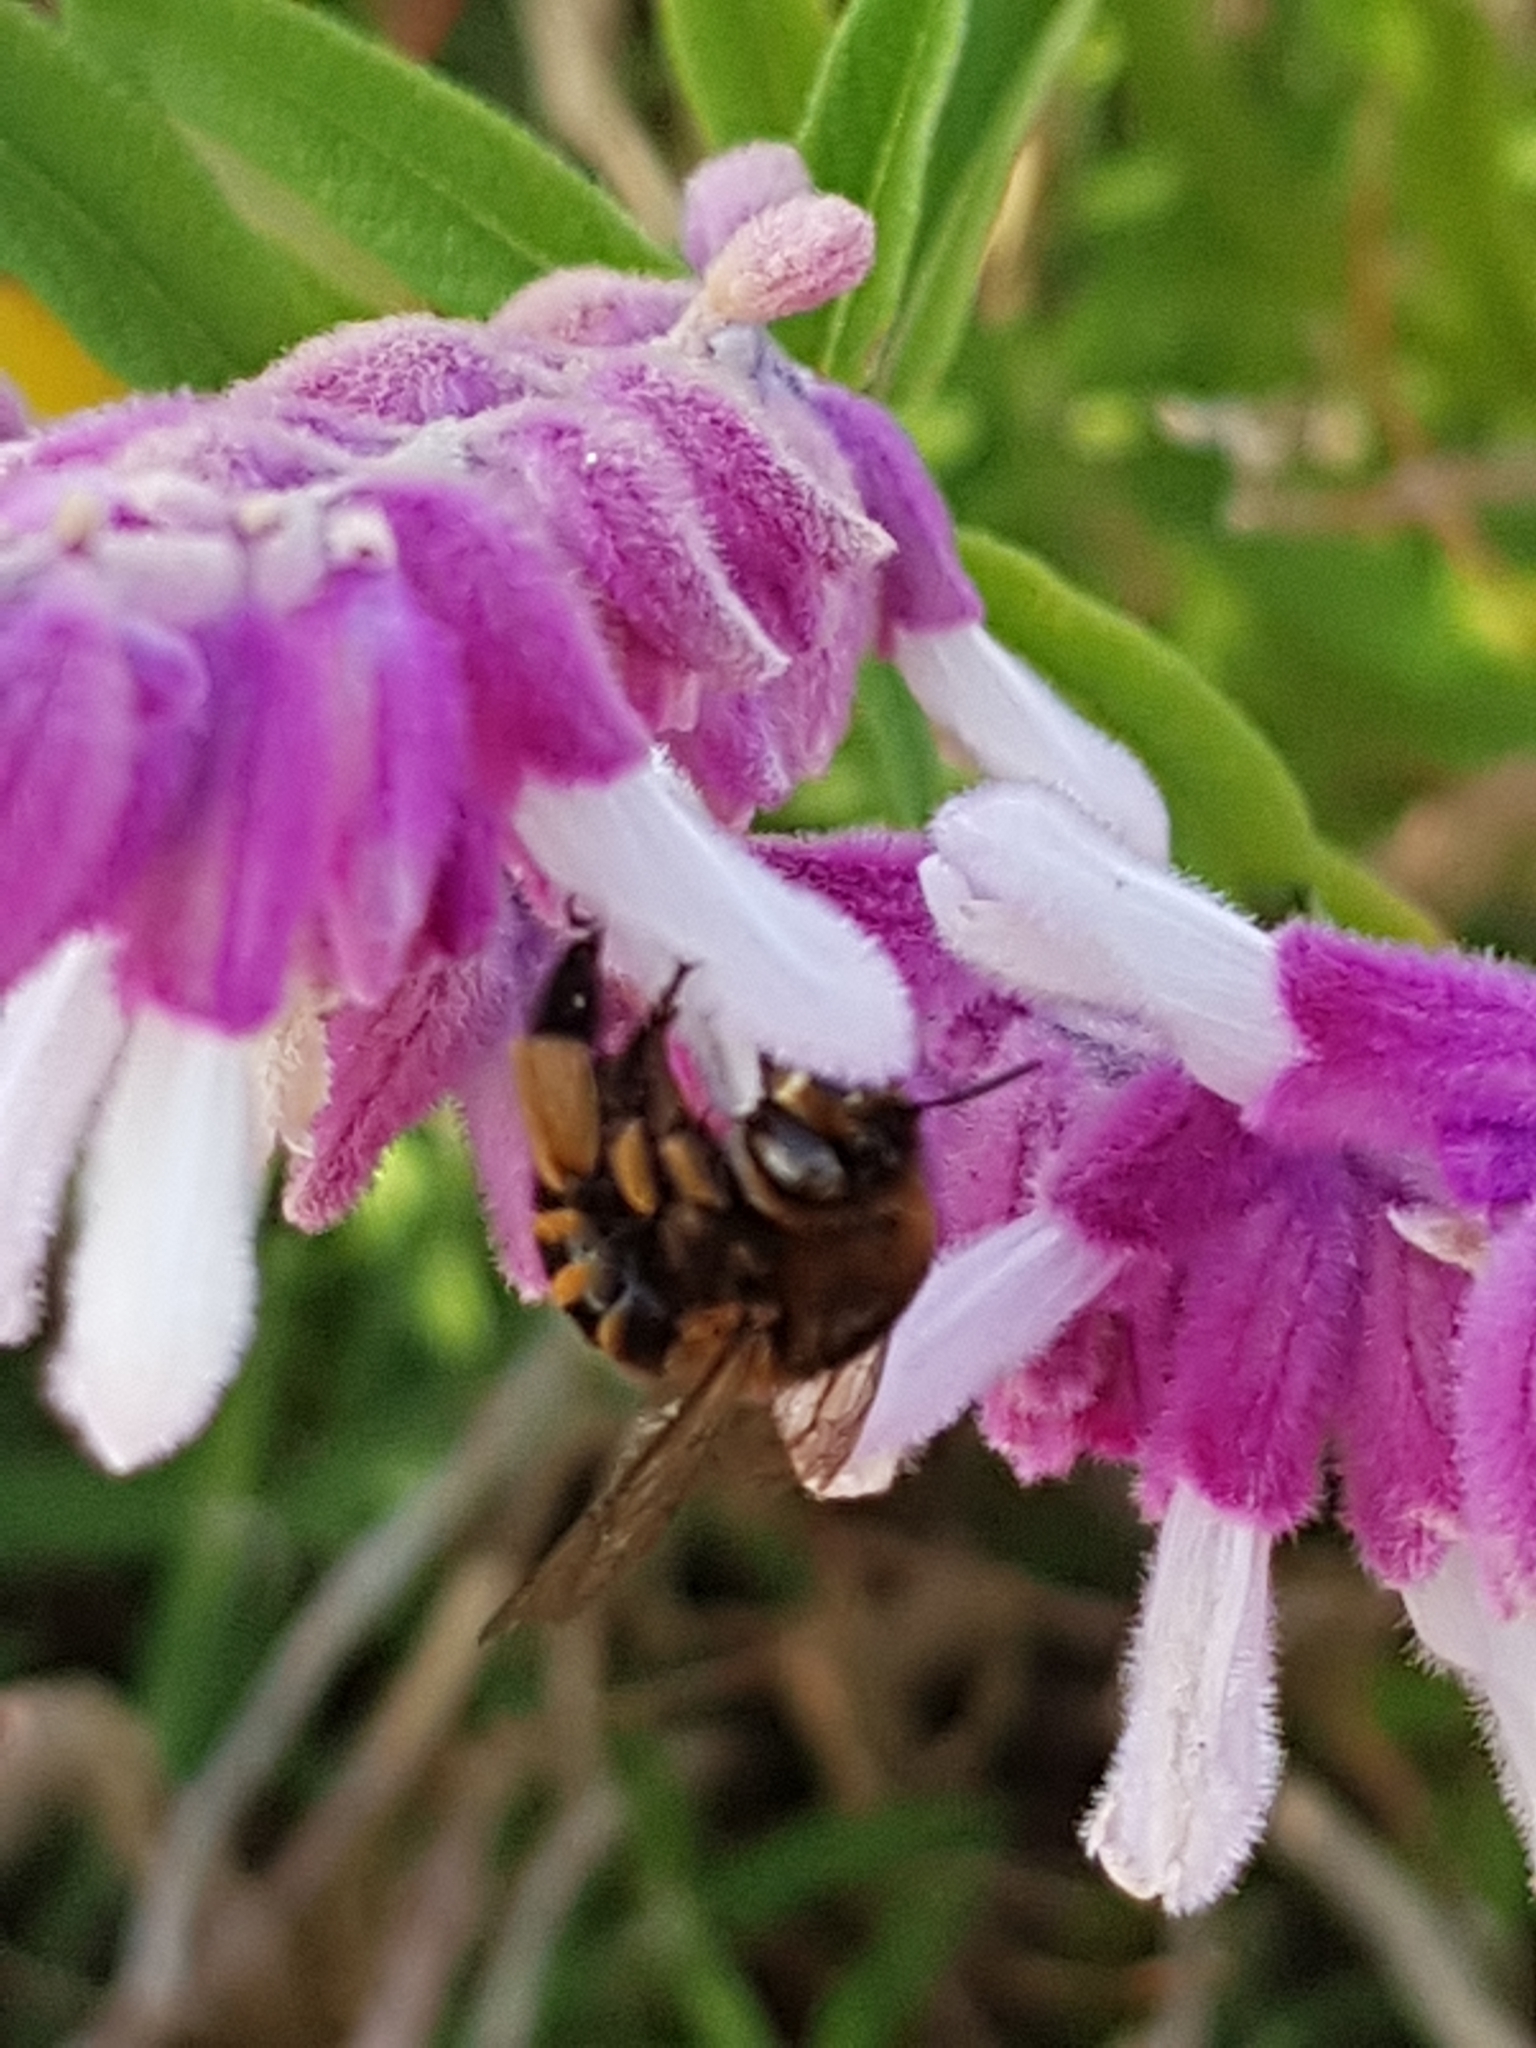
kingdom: Animalia
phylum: Arthropoda
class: Insecta
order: Hymenoptera
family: Apidae
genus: Amegilla
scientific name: Amegilla quadrifasciata
